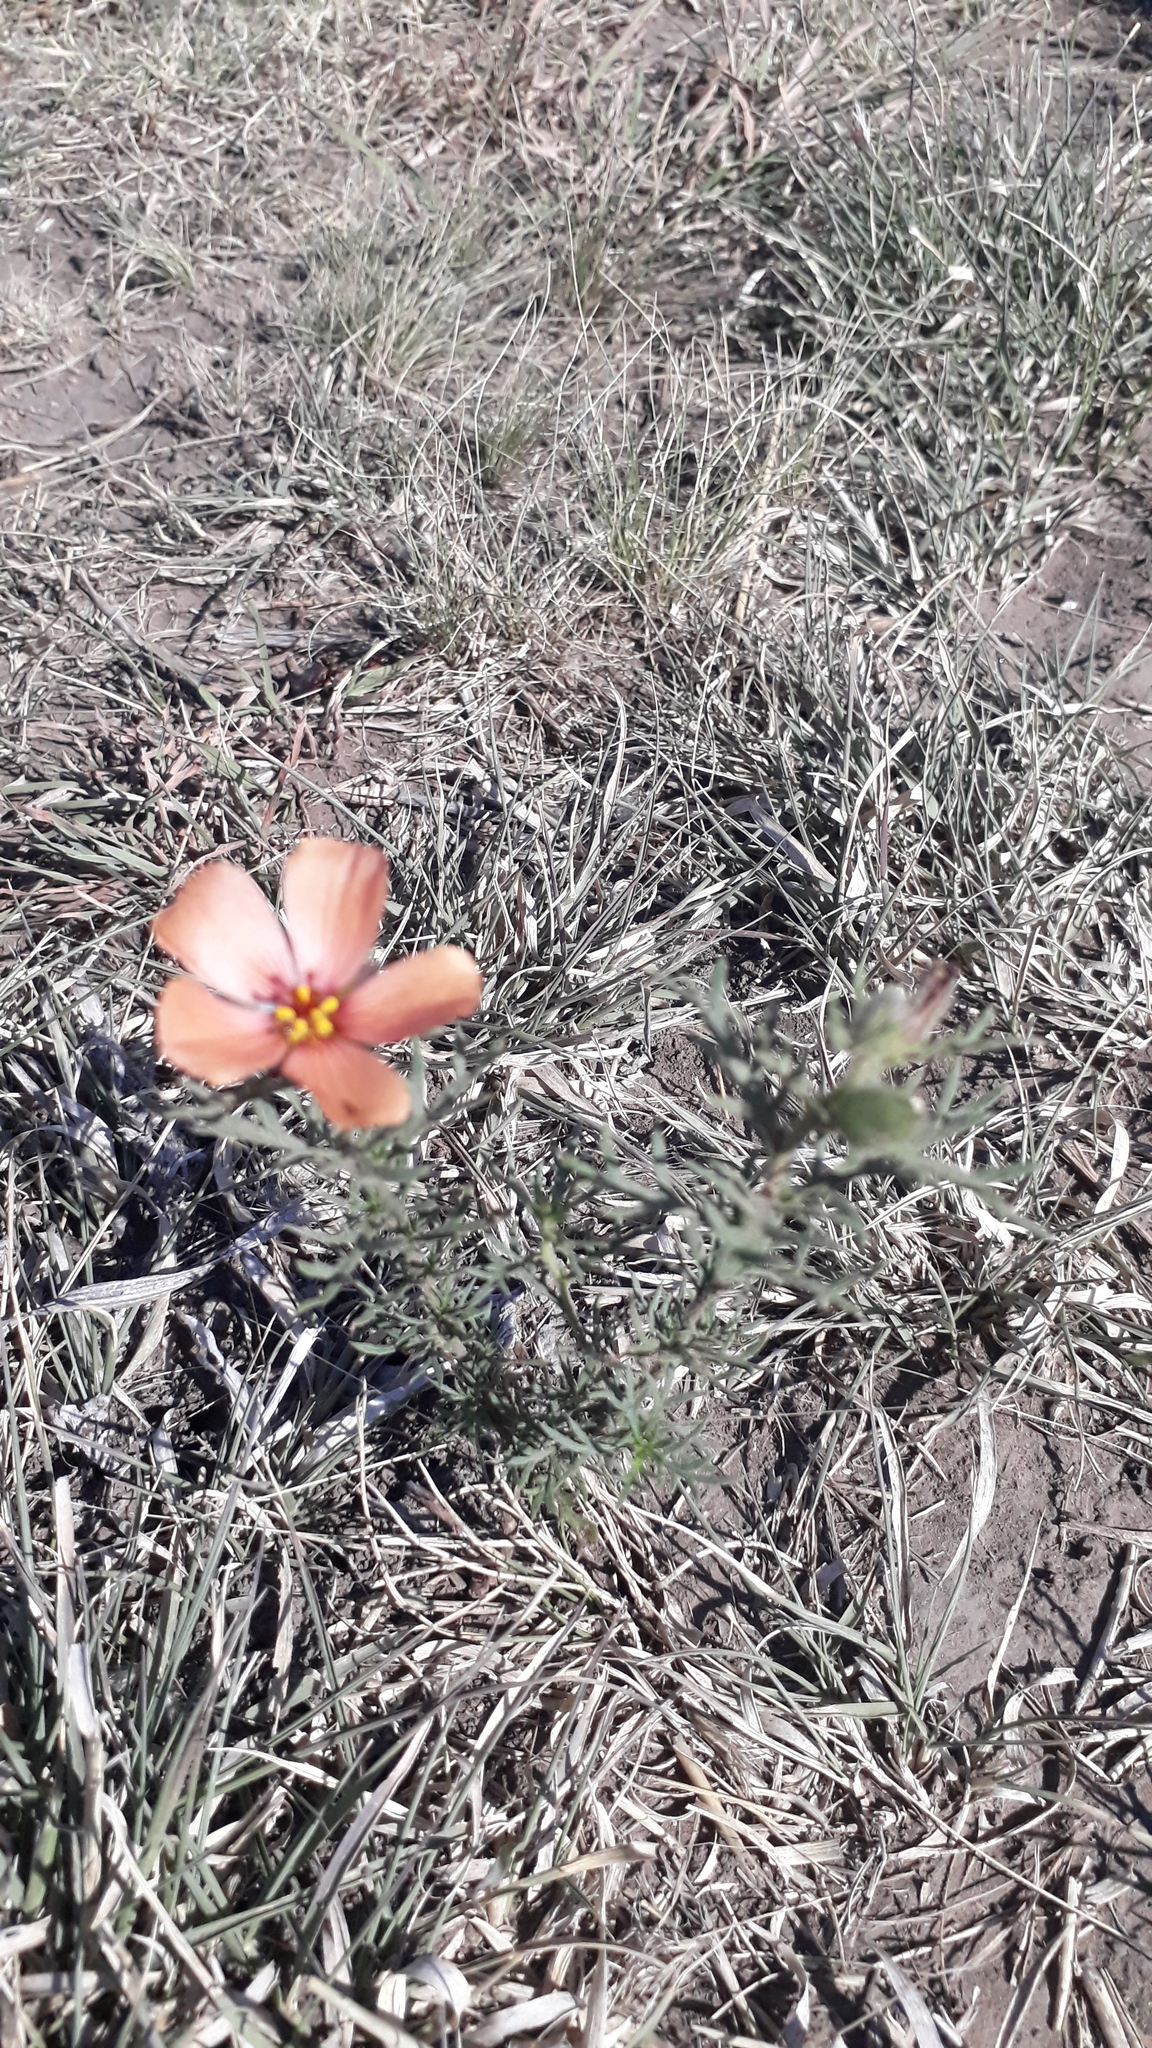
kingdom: Plantae
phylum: Tracheophyta
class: Magnoliopsida
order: Malpighiales
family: Turneraceae
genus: Turnera
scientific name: Turnera sidoides
